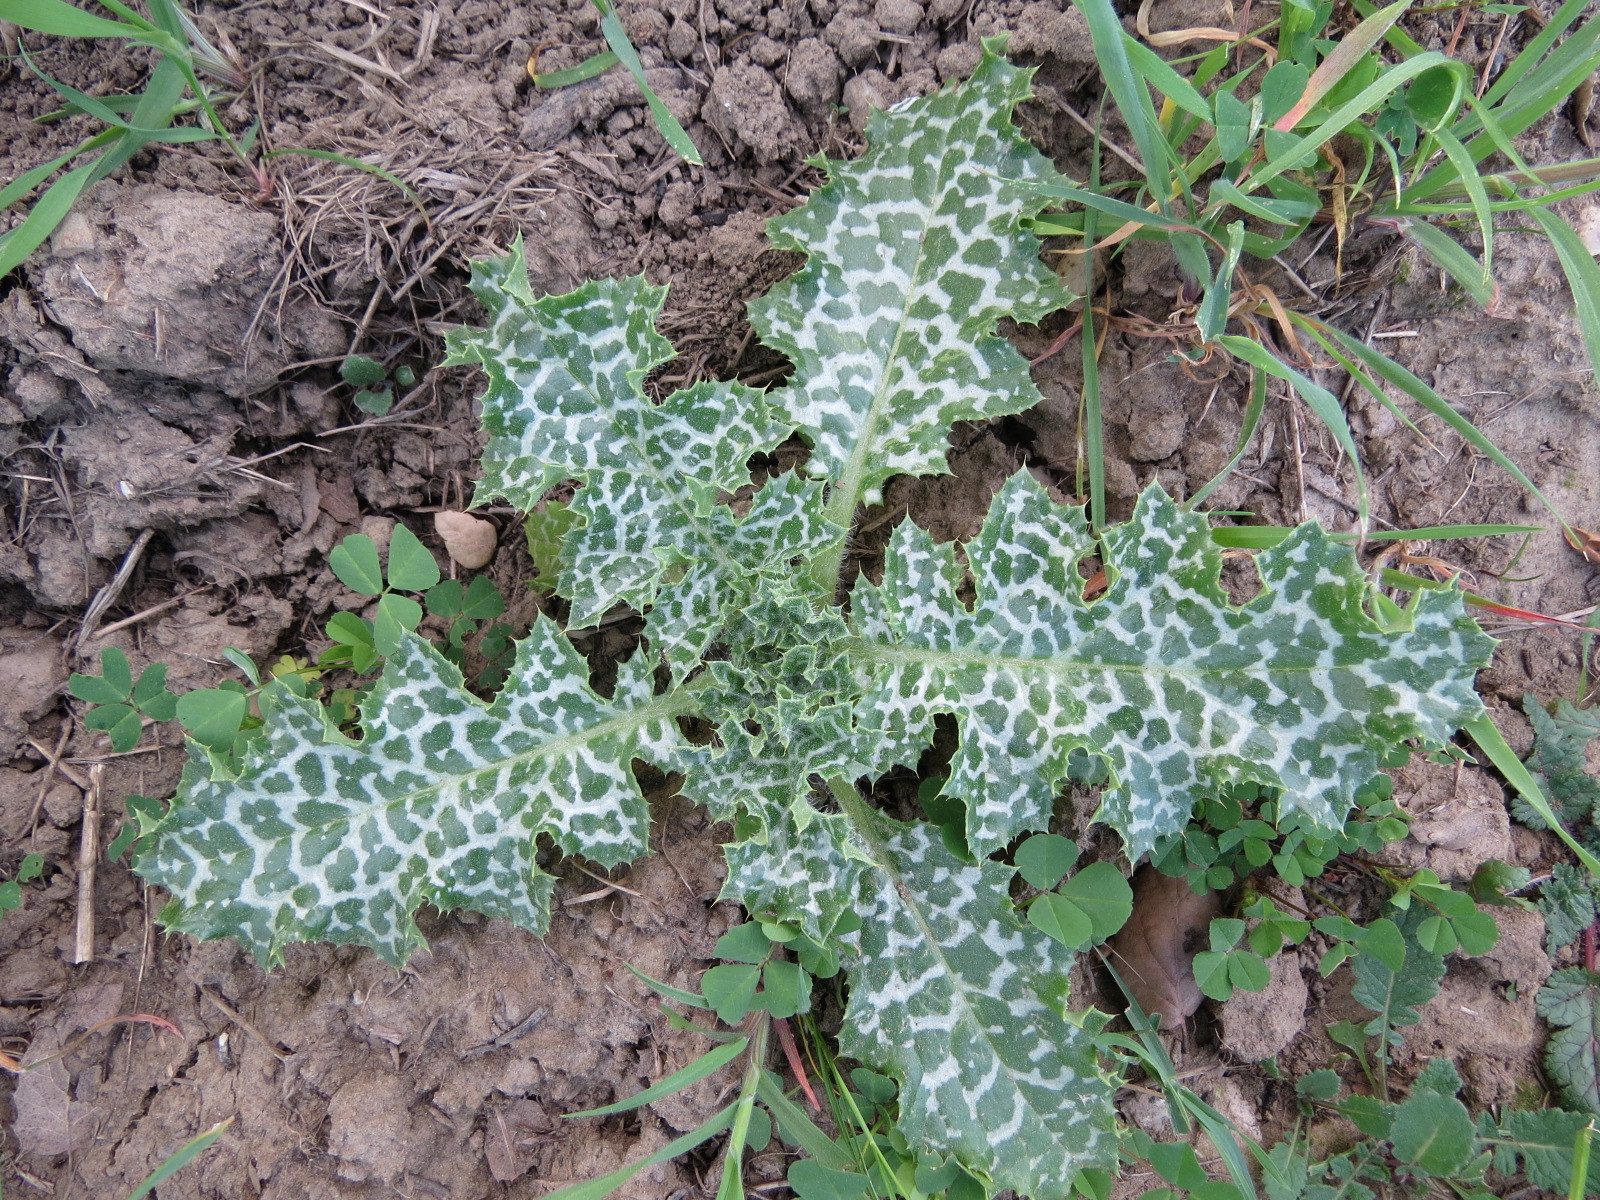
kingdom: Plantae
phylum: Tracheophyta
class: Magnoliopsida
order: Asterales
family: Asteraceae
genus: Silybum
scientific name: Silybum marianum
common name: Milk thistle
